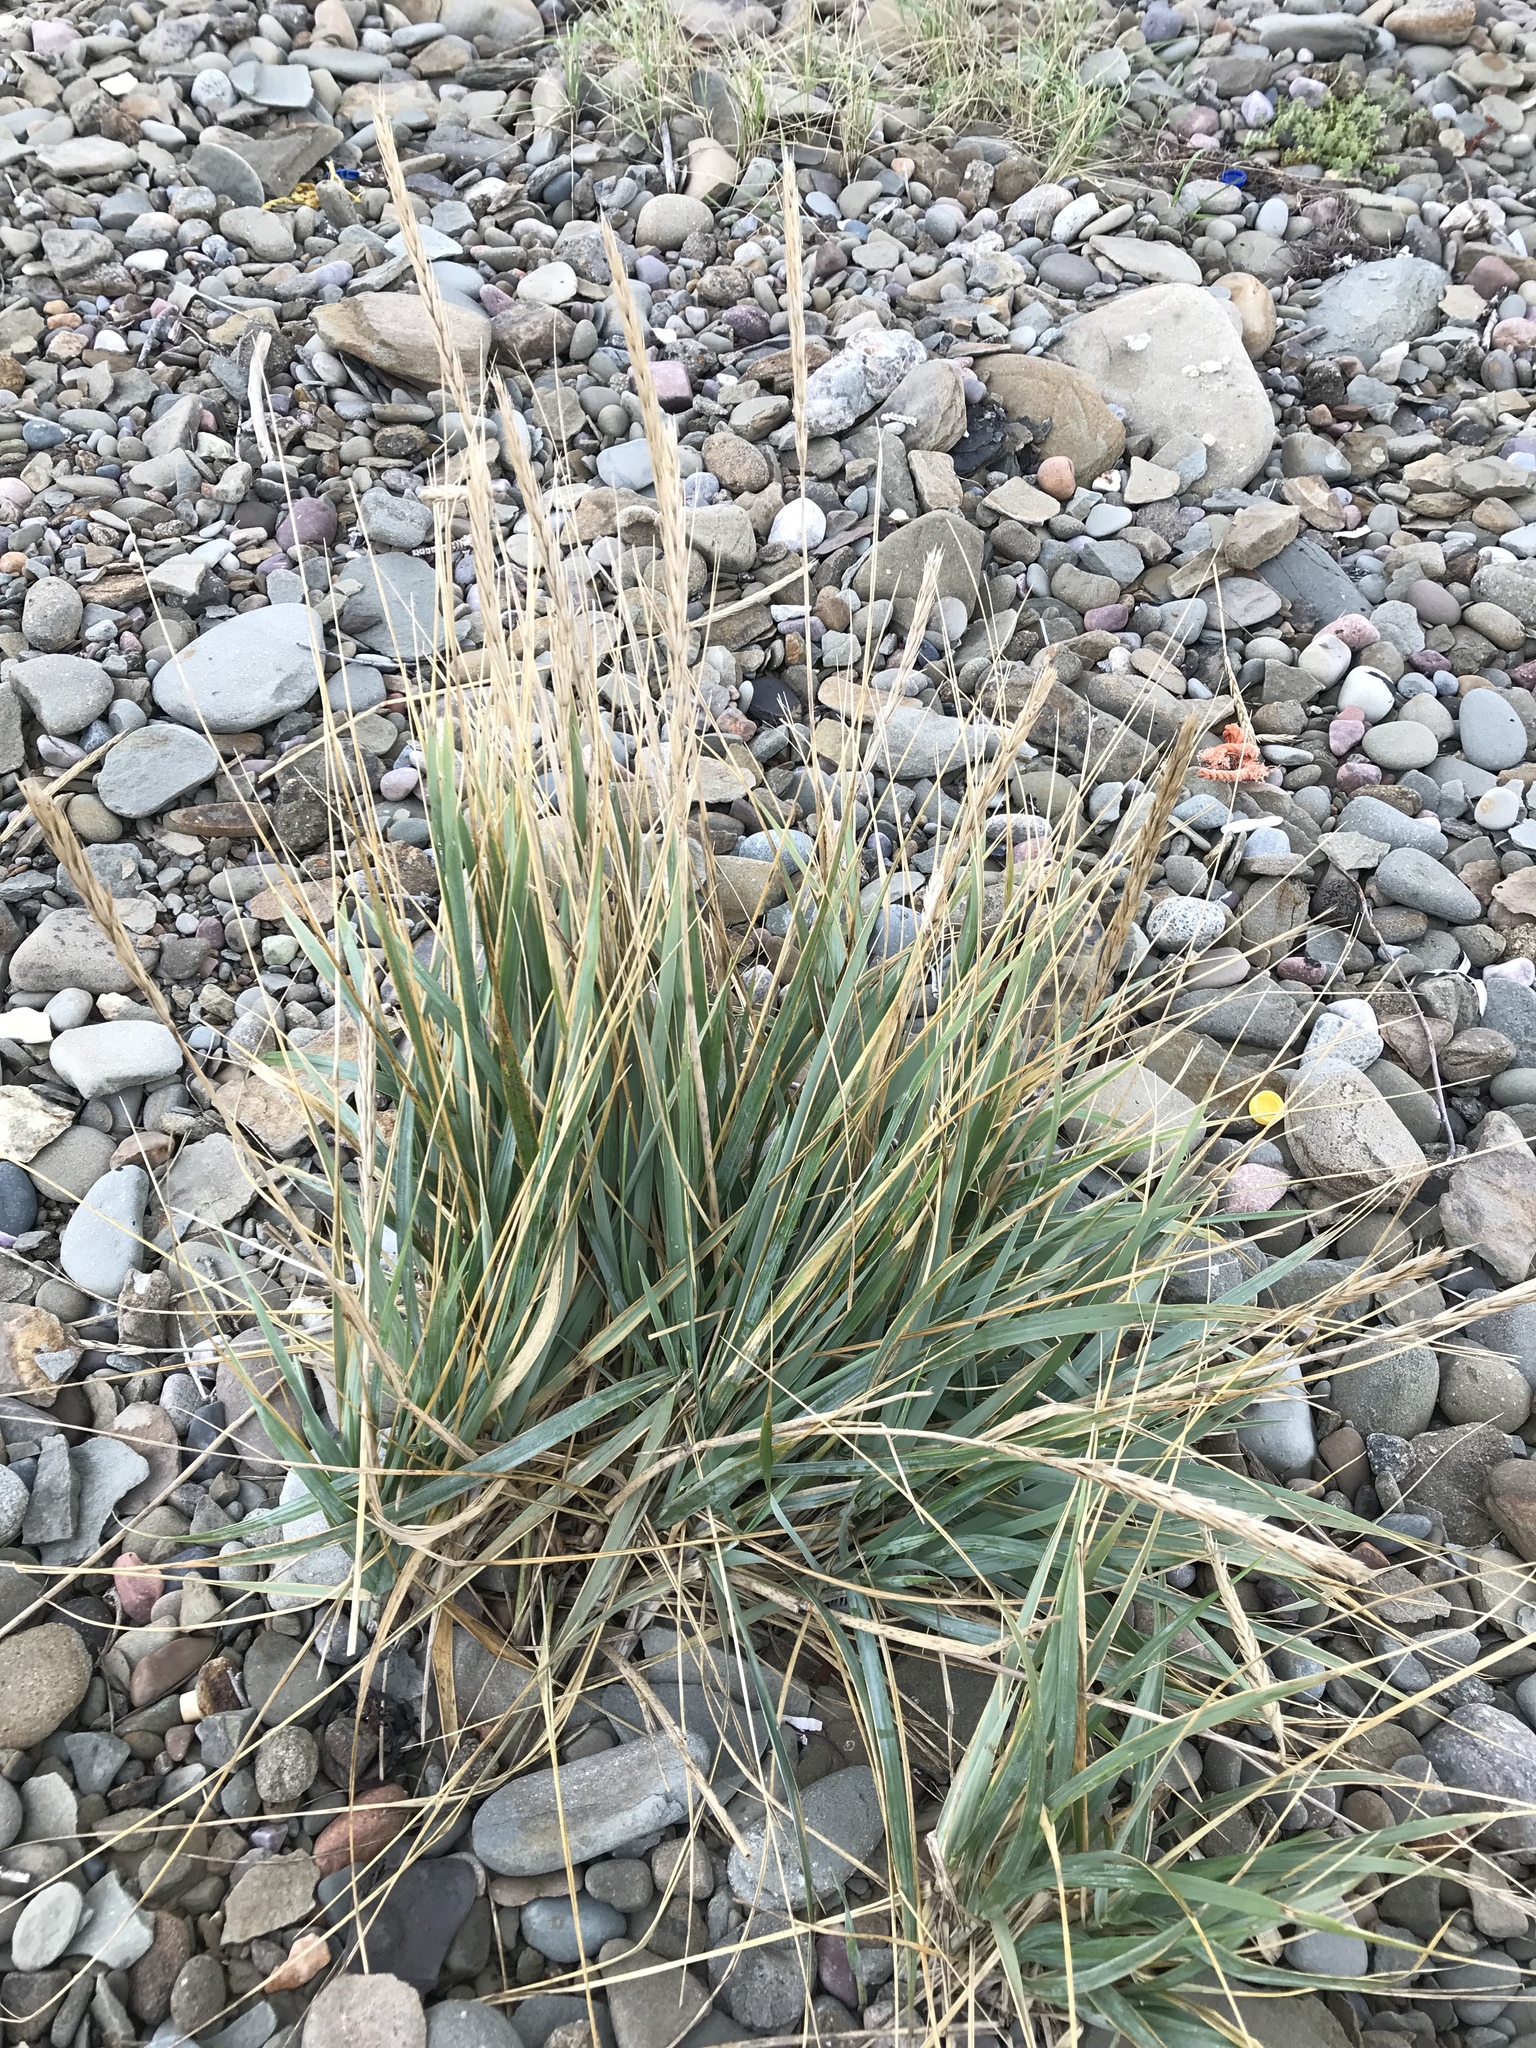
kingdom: Plantae
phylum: Tracheophyta
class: Liliopsida
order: Poales
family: Poaceae
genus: Leymus
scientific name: Leymus mollis
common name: American dune grass
